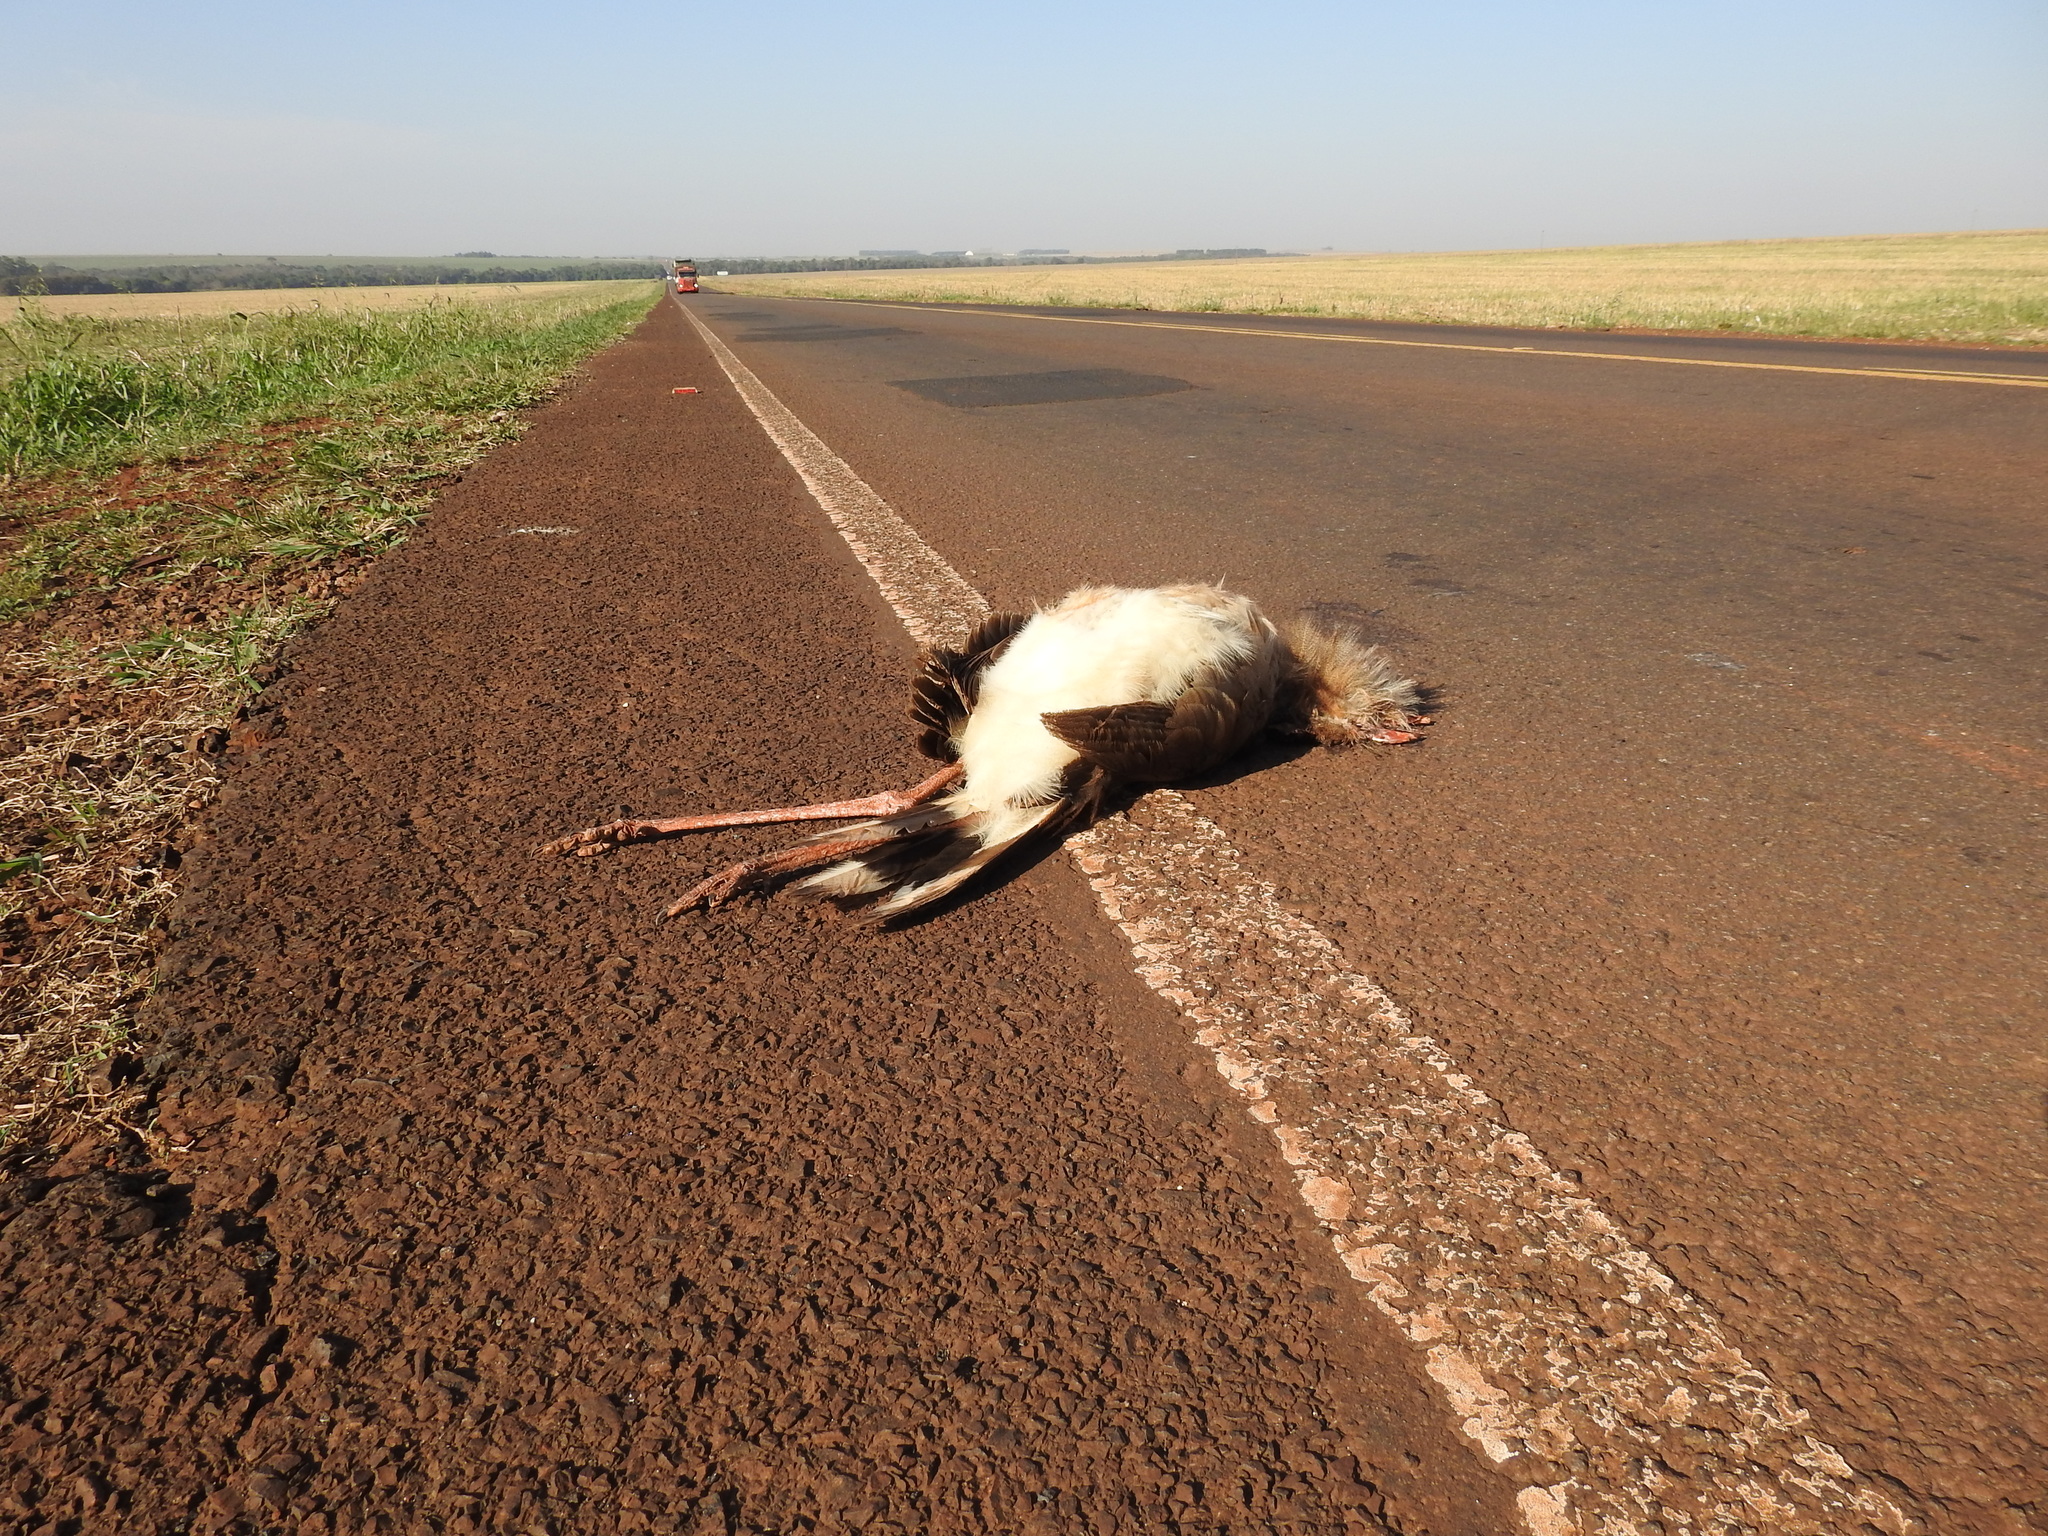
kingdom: Animalia
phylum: Chordata
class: Aves
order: Cariamiformes
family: Cariamidae
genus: Cariama
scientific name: Cariama cristata
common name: Red-legged seriema
